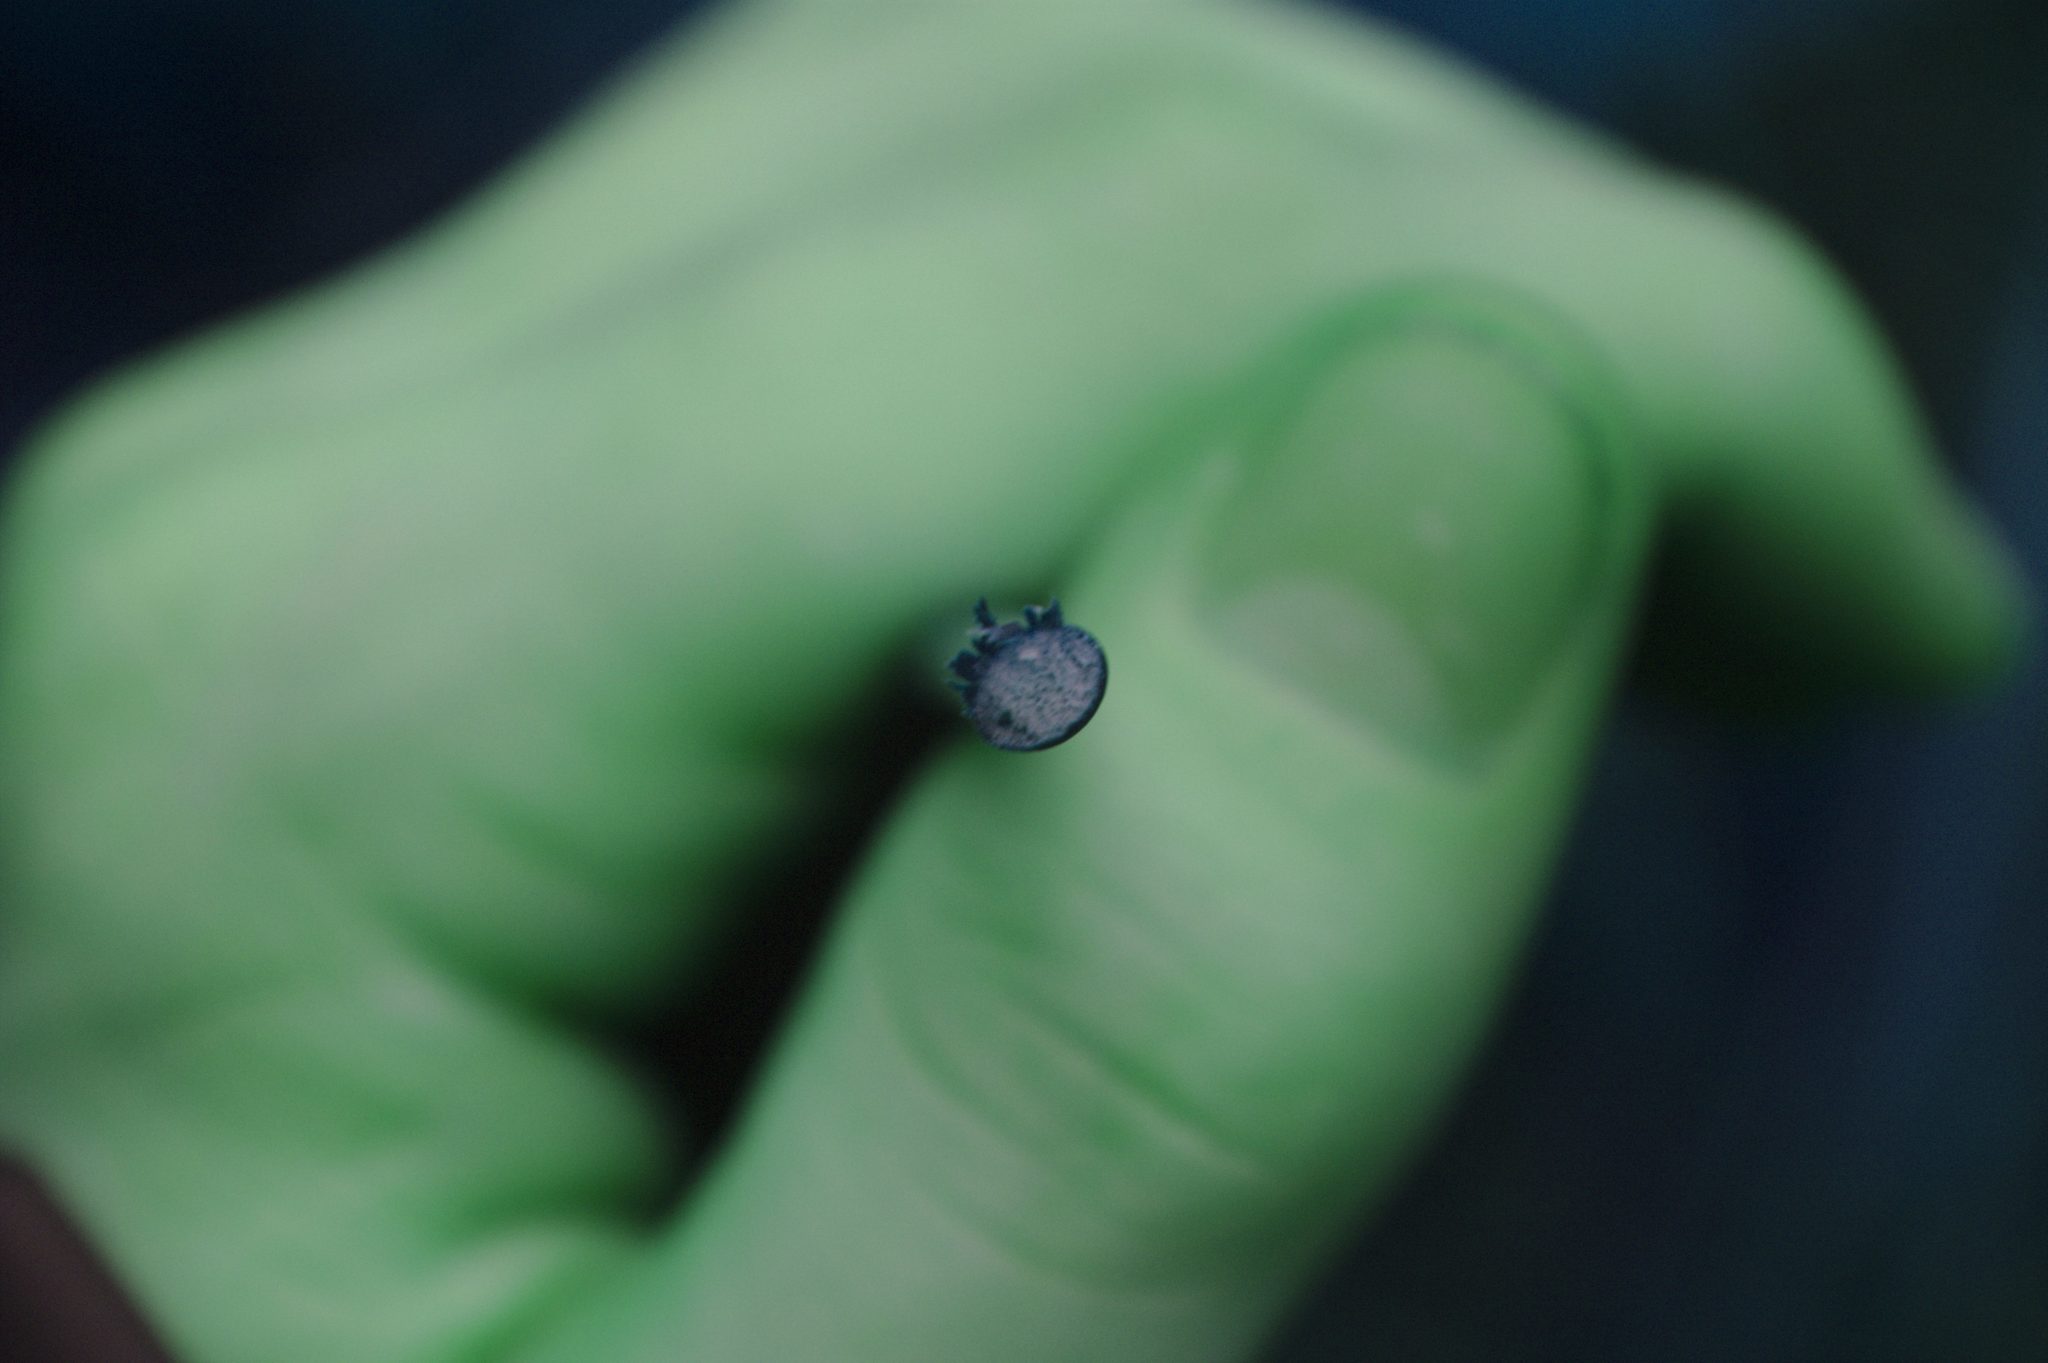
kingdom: Plantae
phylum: Tracheophyta
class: Liliopsida
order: Poales
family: Cyperaceae
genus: Schoenoplectus
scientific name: Schoenoplectus acutus
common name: Hardstem bulrush
